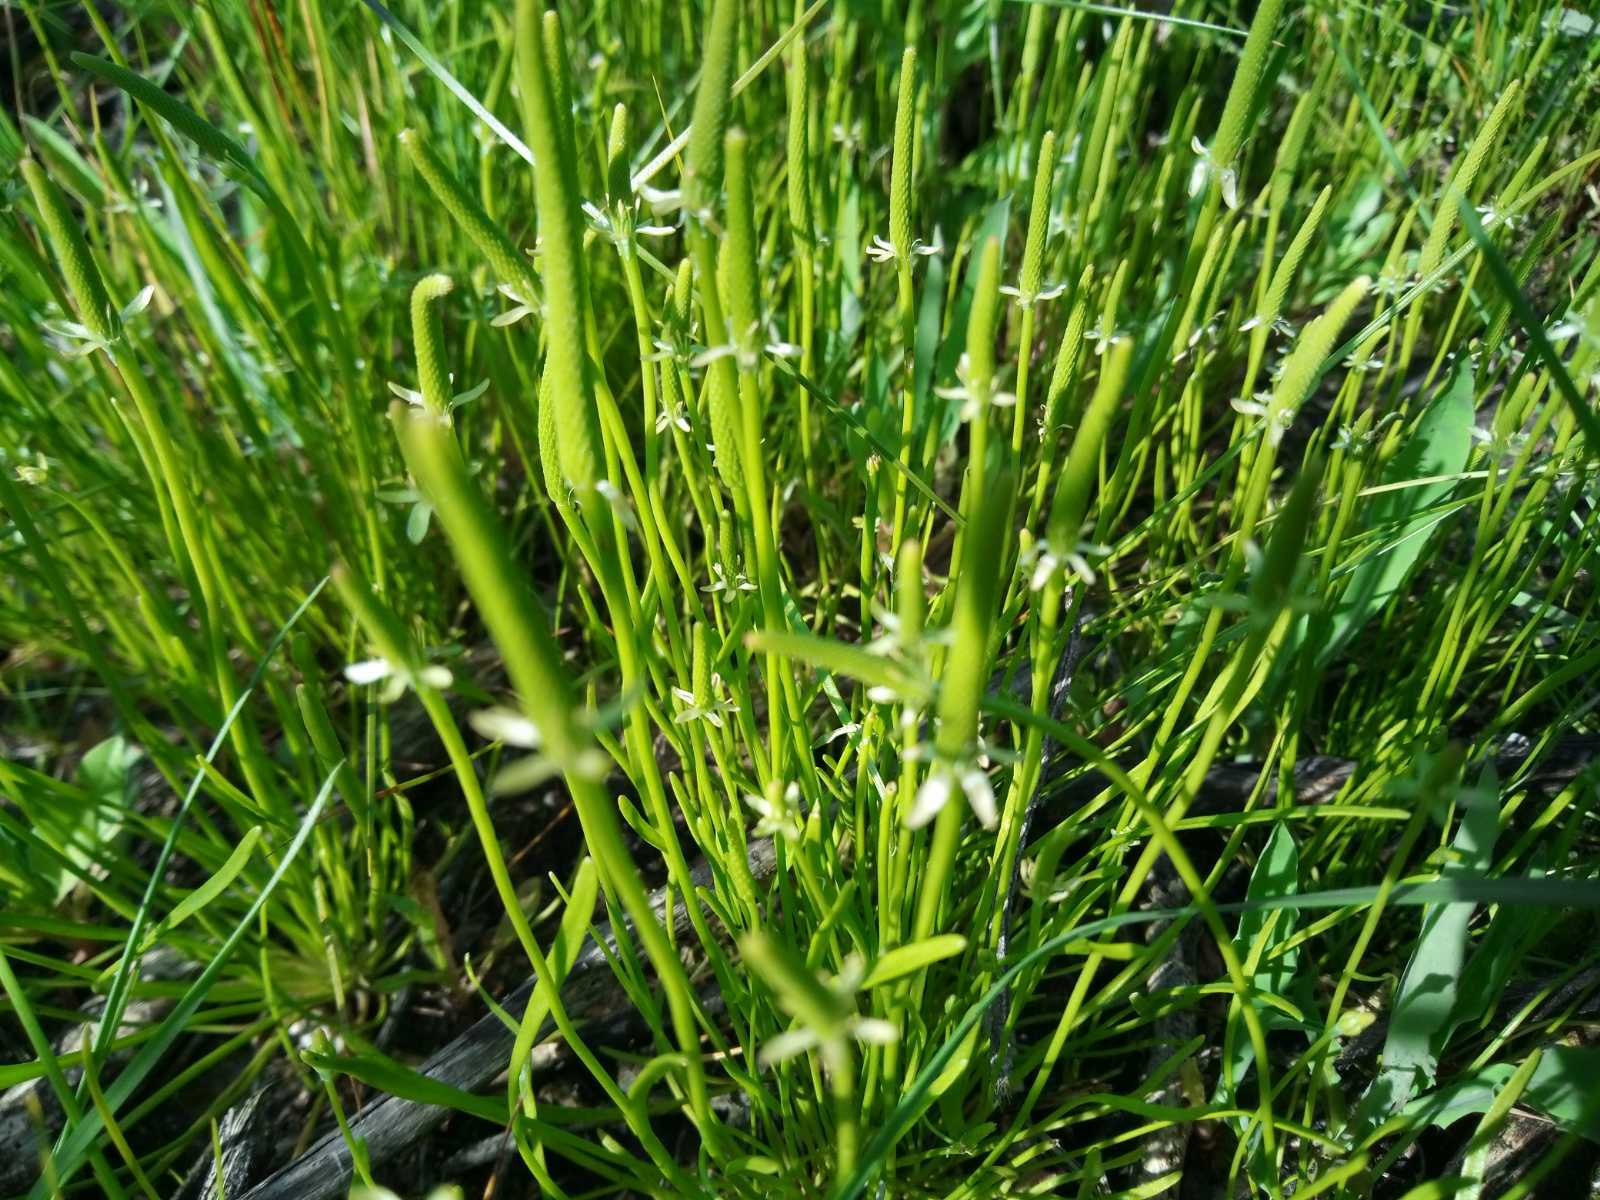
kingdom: Plantae
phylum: Tracheophyta
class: Magnoliopsida
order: Ranunculales
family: Ranunculaceae
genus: Myosurus
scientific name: Myosurus minimus
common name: Mousetail
